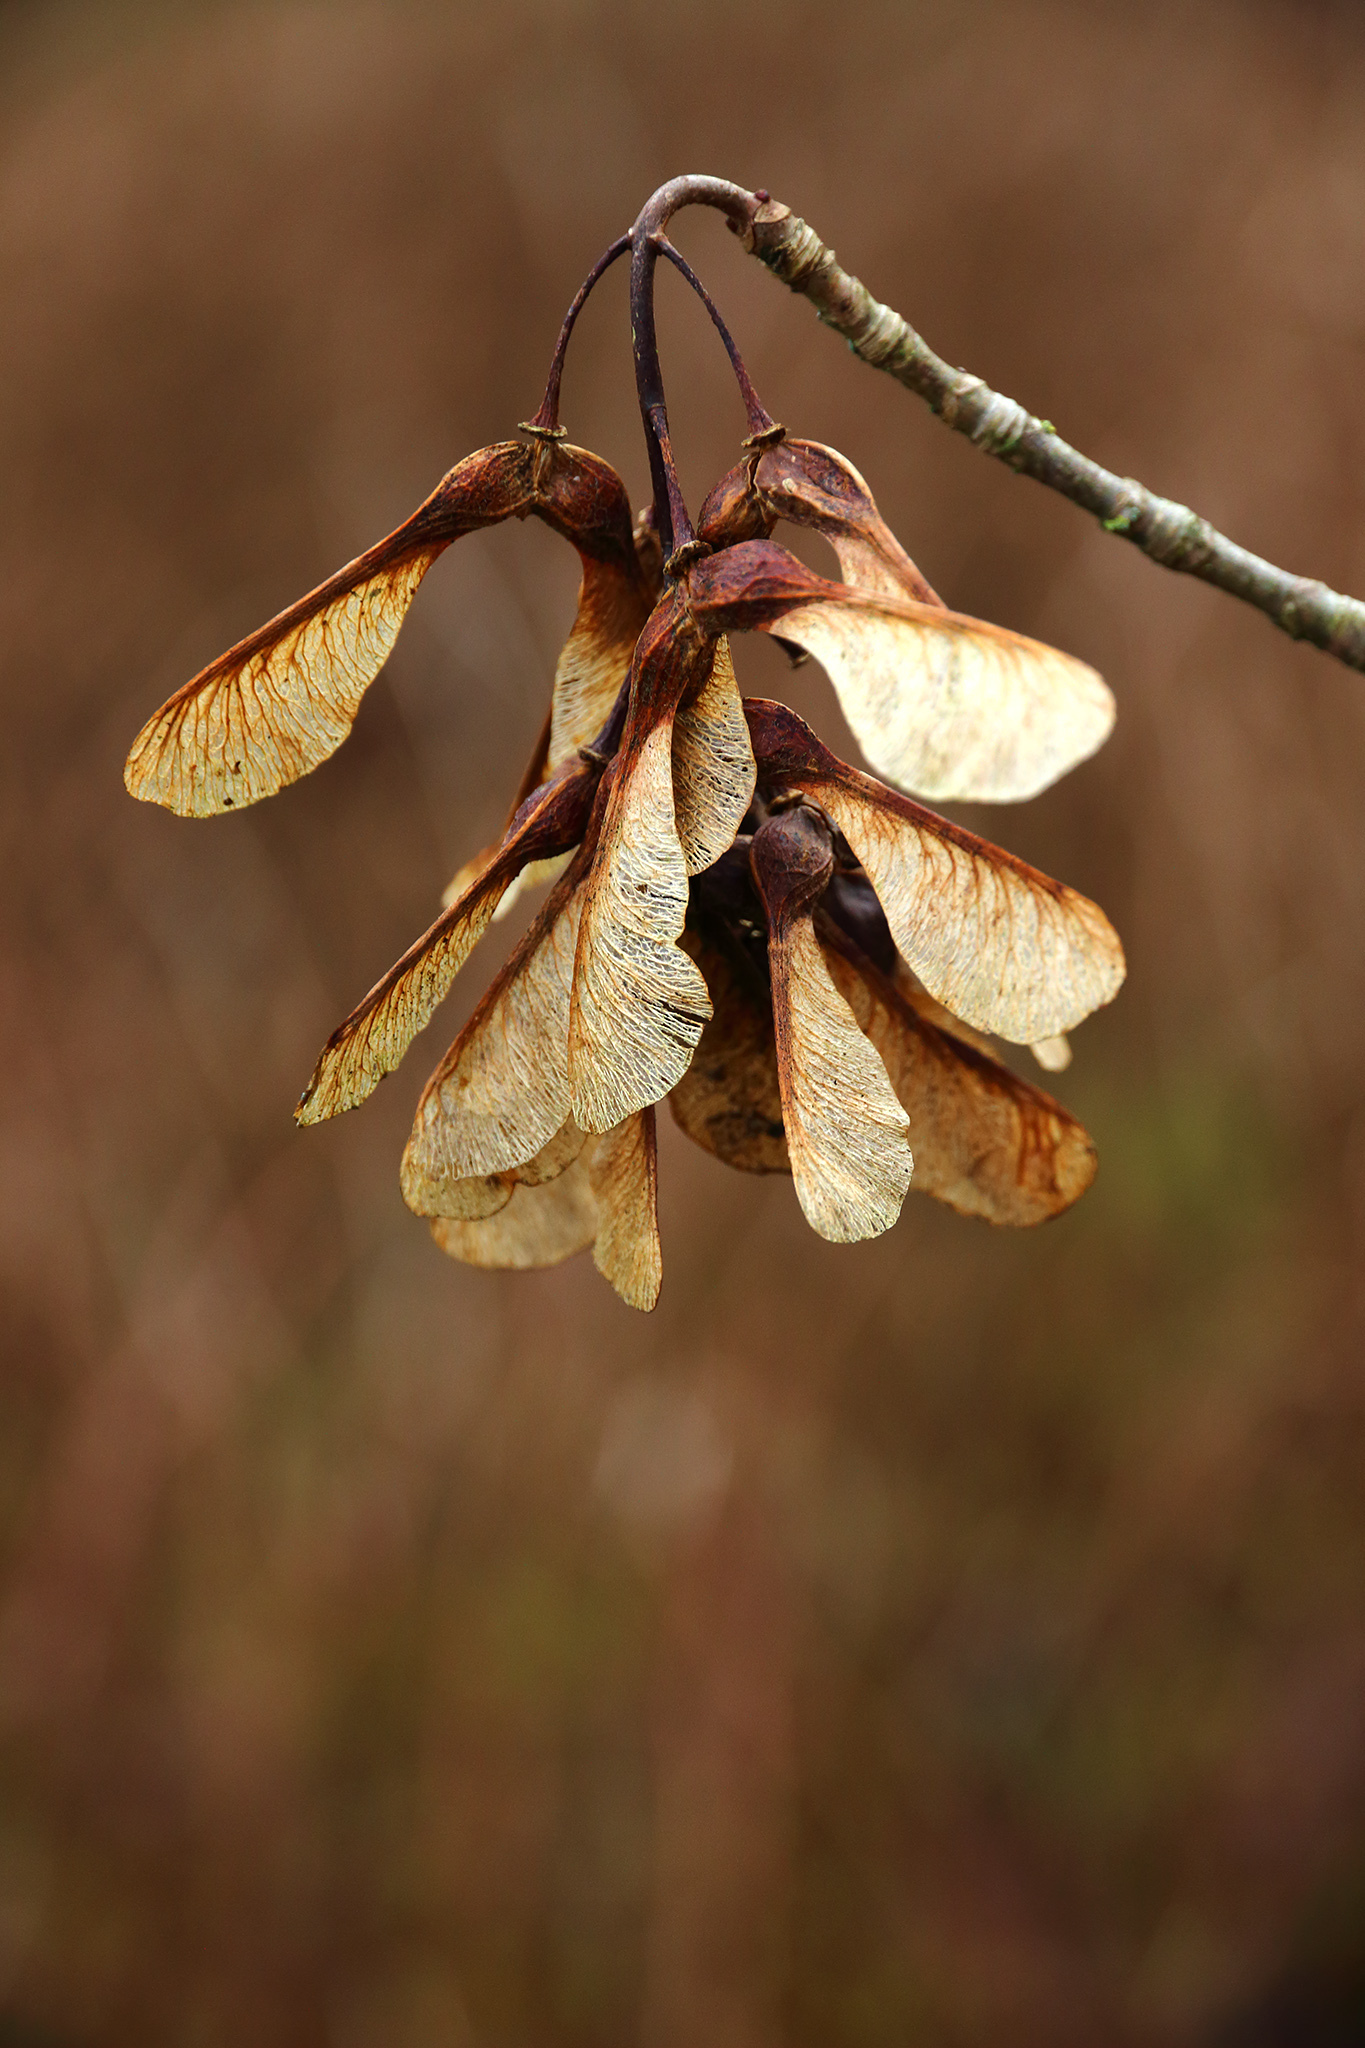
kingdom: Plantae
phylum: Tracheophyta
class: Magnoliopsida
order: Sapindales
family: Sapindaceae
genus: Acer
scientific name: Acer pseudoplatanus
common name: Sycamore
